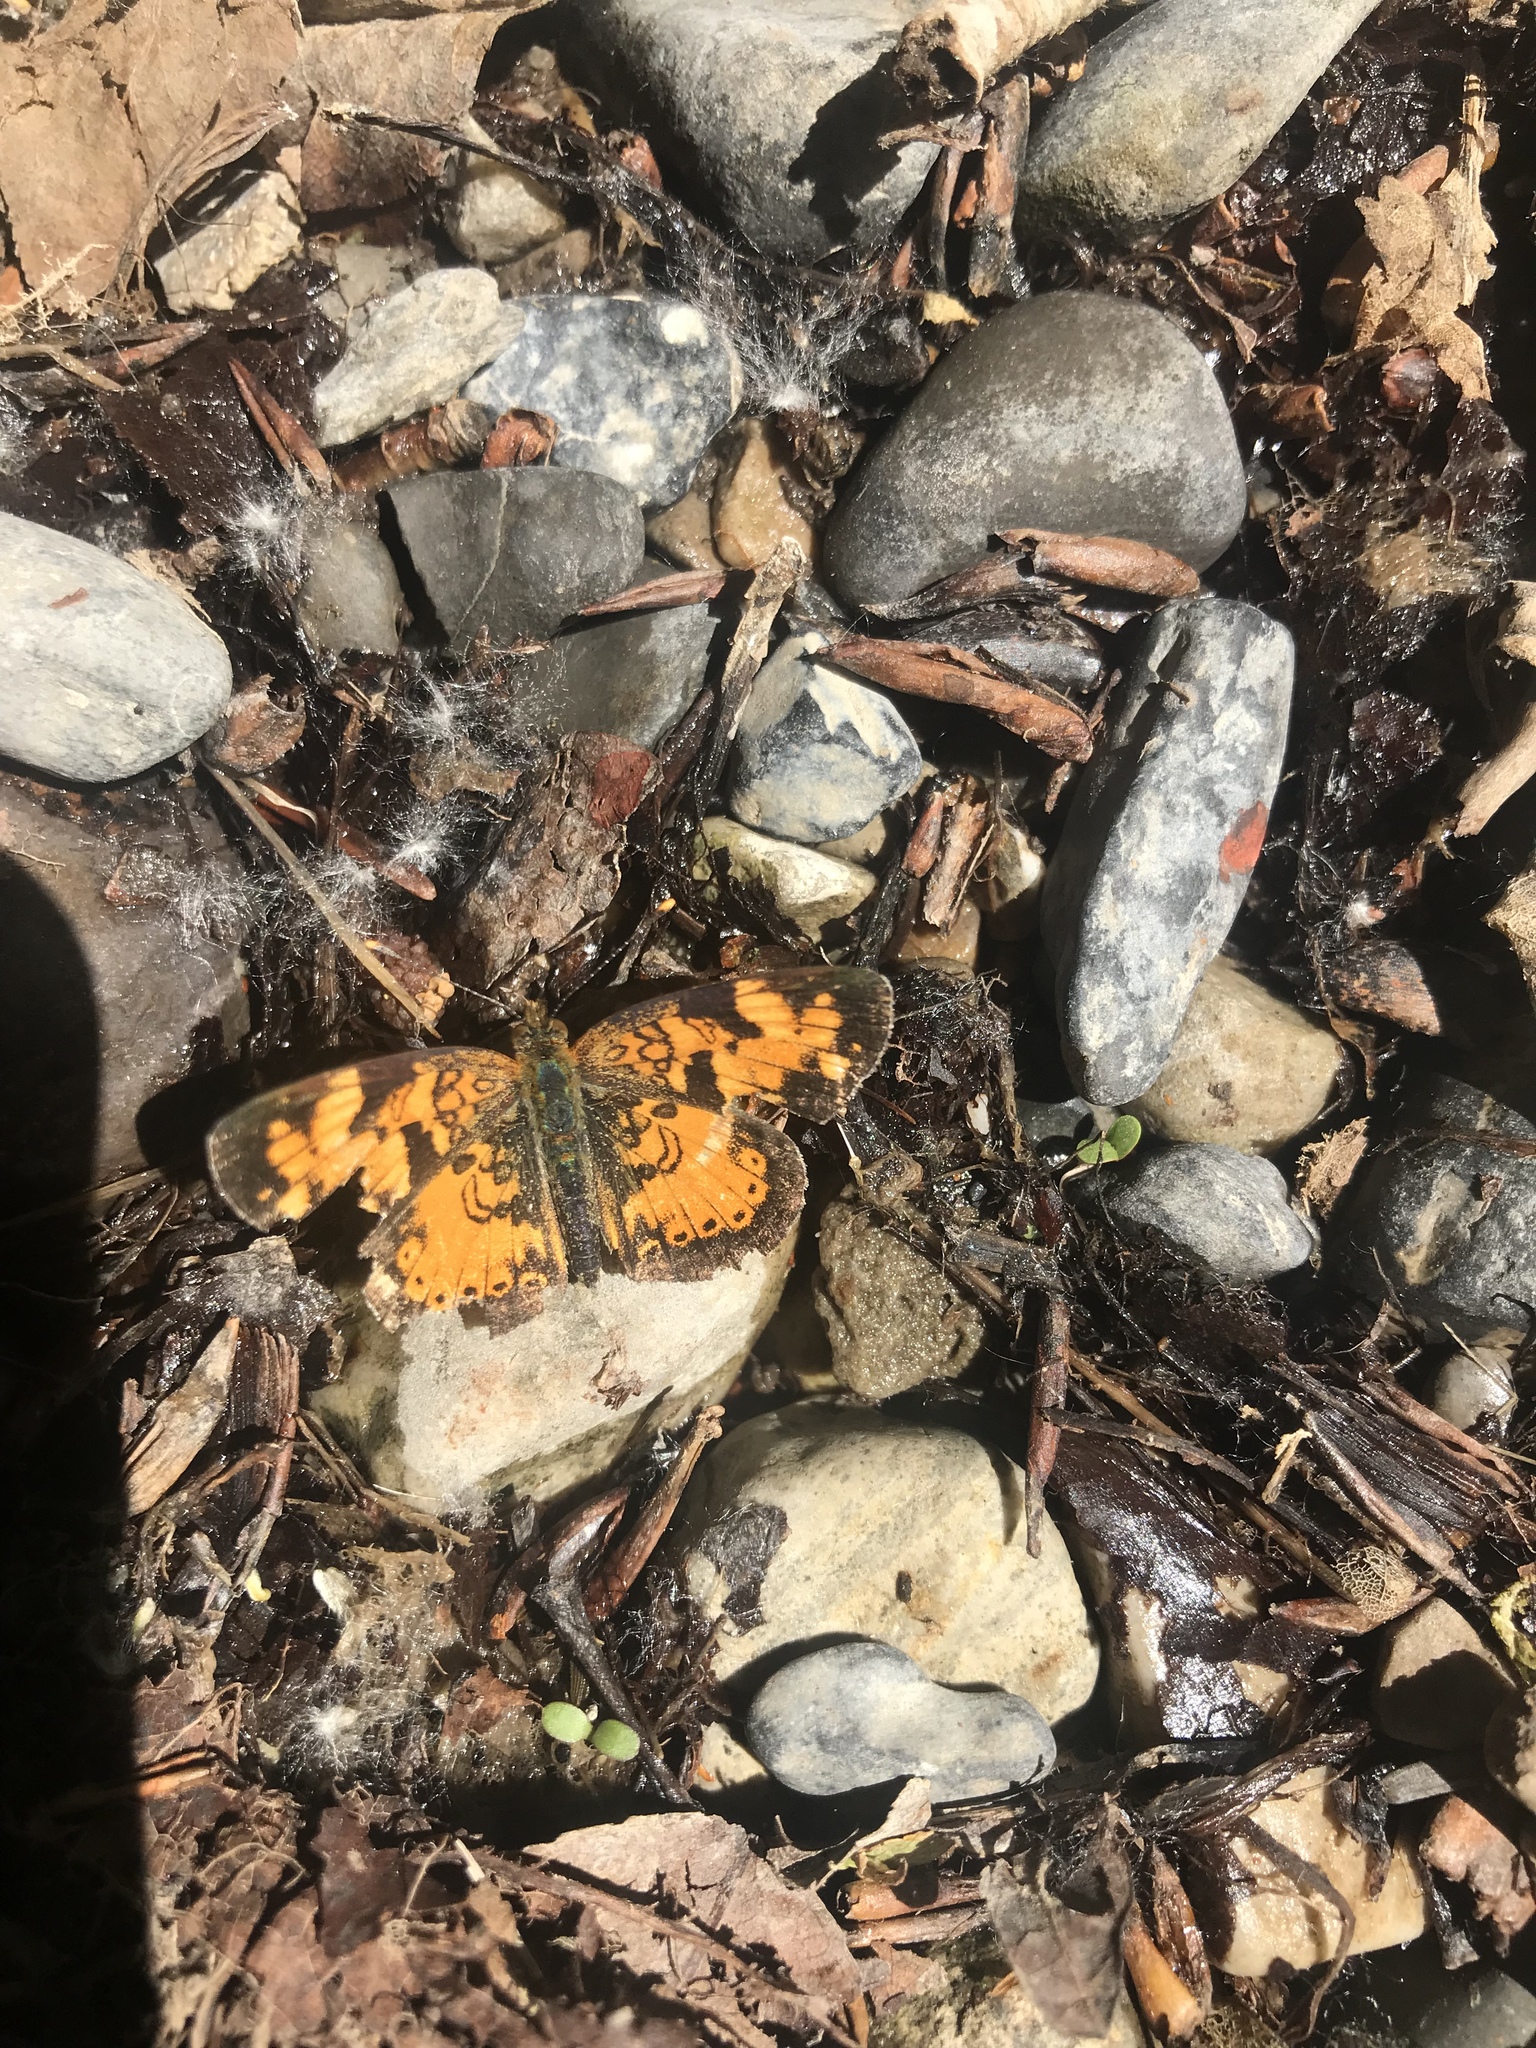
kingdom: Animalia
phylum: Arthropoda
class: Insecta
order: Lepidoptera
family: Nymphalidae
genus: Phyciodes
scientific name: Phyciodes tharos
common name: Pearl crescent
